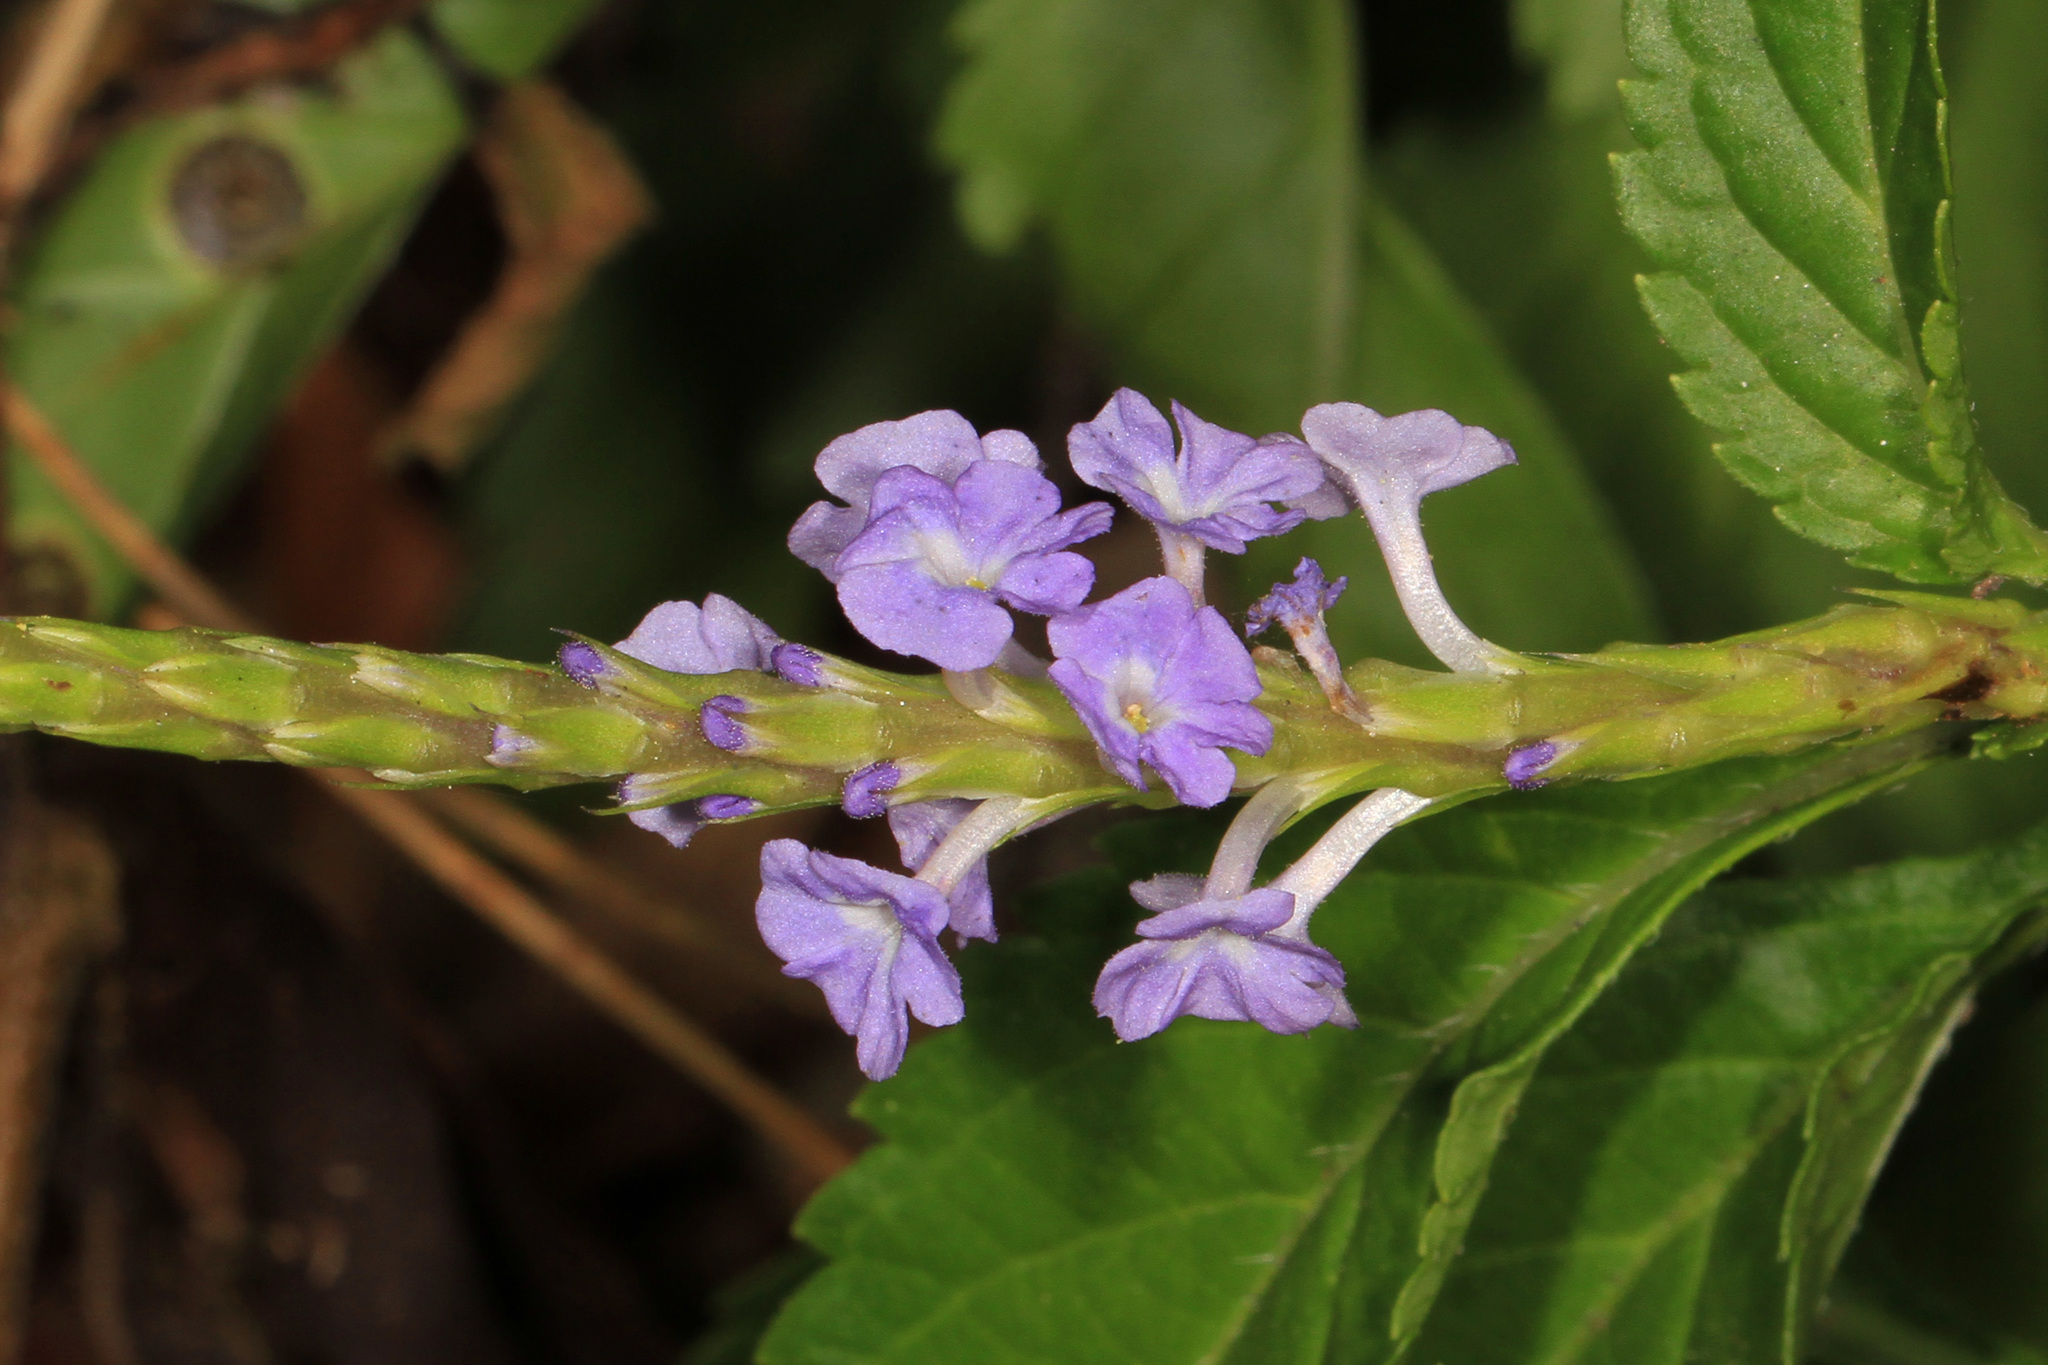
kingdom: Plantae
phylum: Tracheophyta
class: Magnoliopsida
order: Lamiales
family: Verbenaceae
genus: Stachytarpheta
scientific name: Stachytarpheta jamaicensis
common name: Light-blue snakeweed
